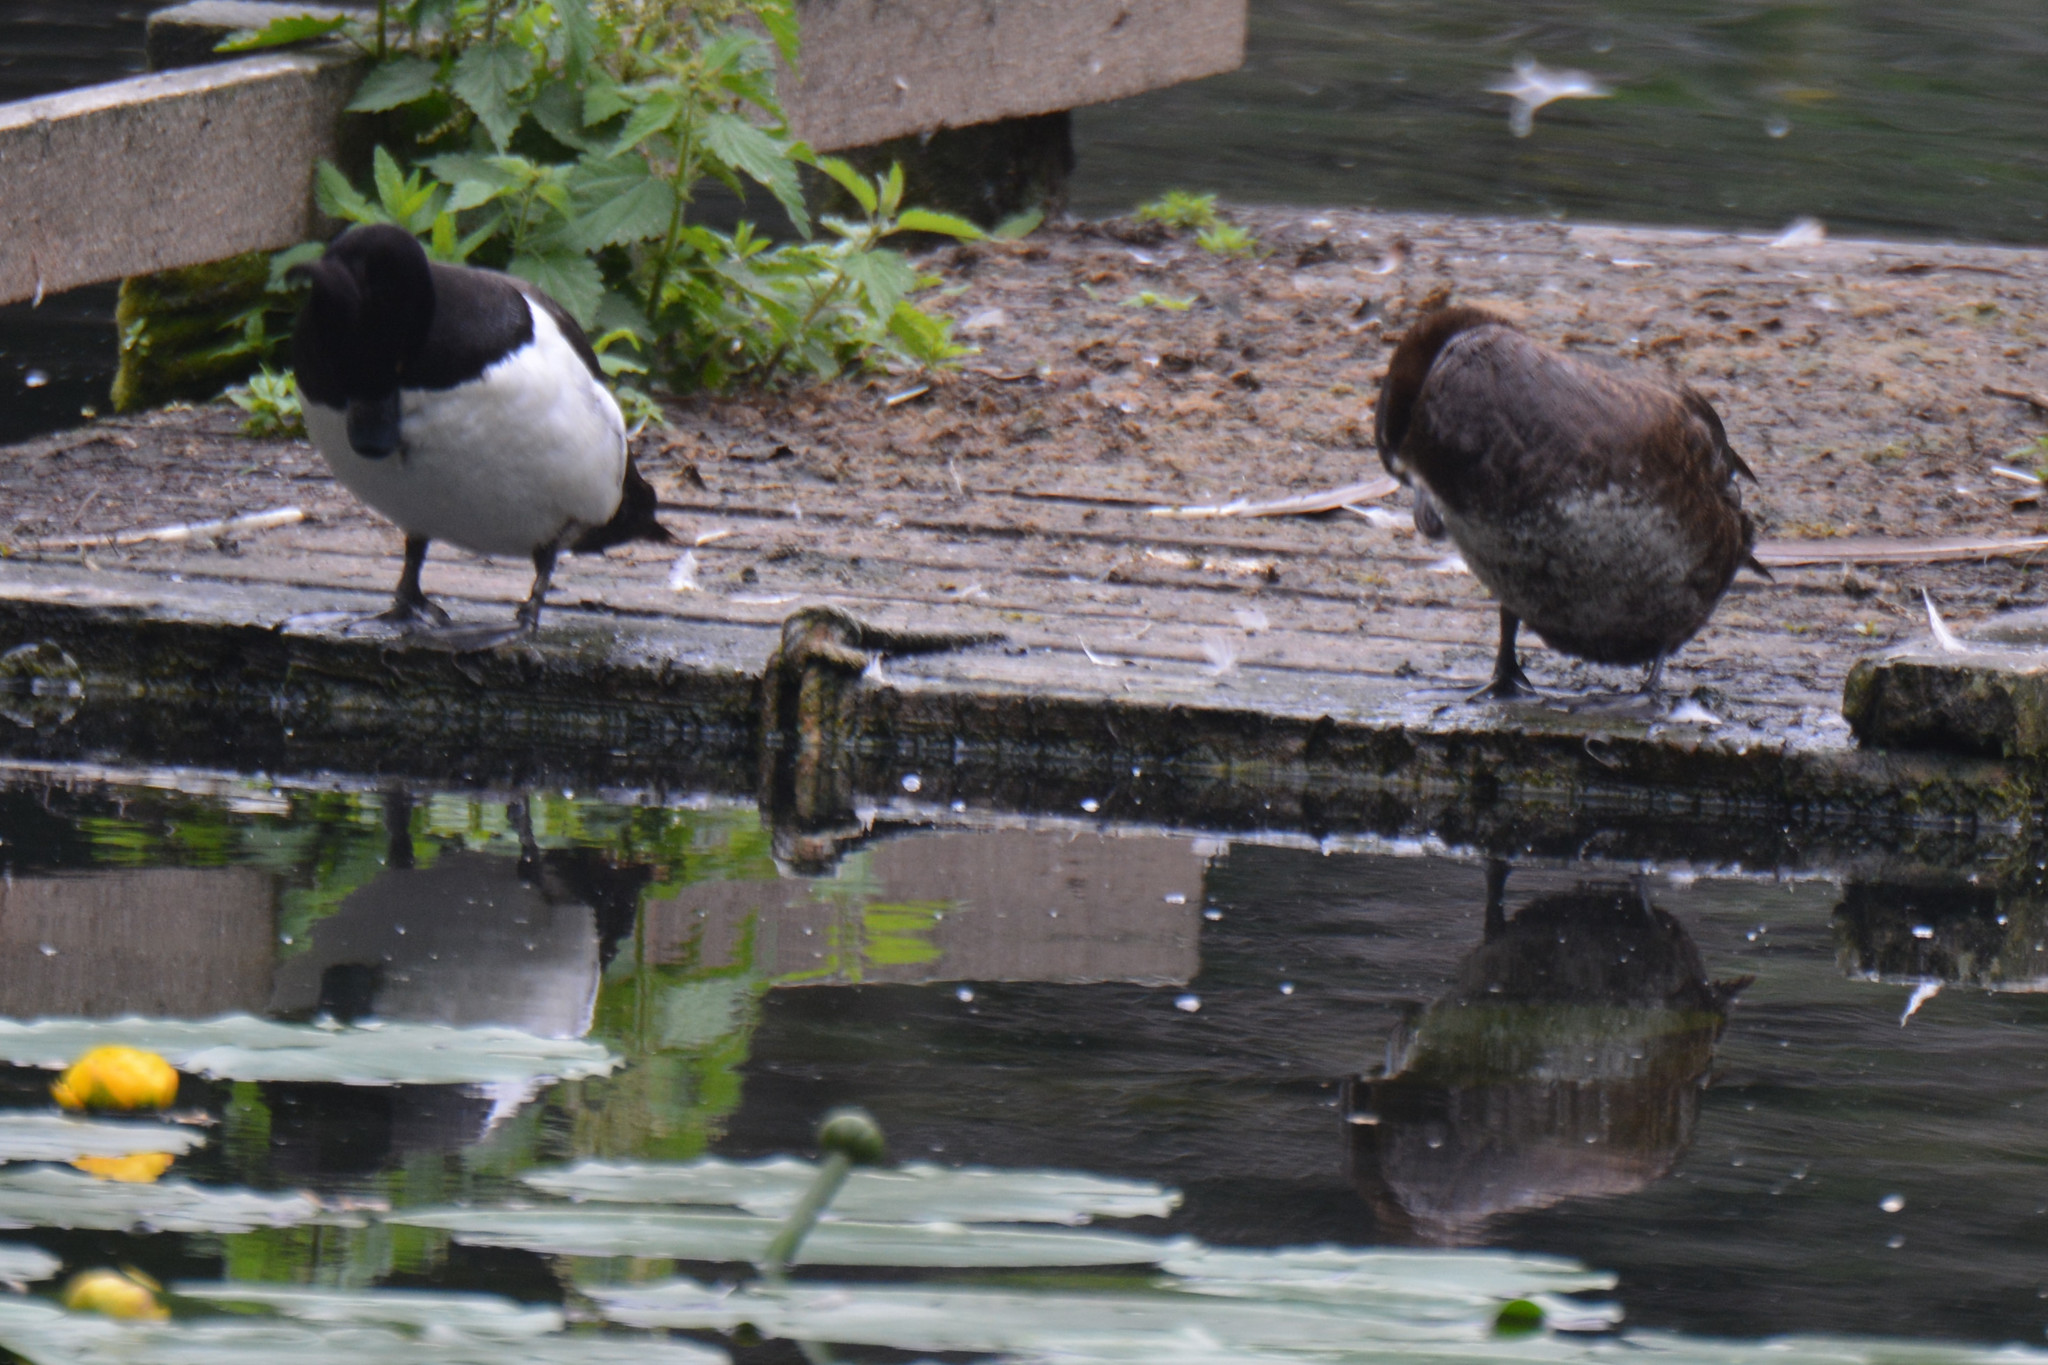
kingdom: Animalia
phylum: Chordata
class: Aves
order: Anseriformes
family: Anatidae
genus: Aythya
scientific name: Aythya fuligula
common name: Tufted duck
